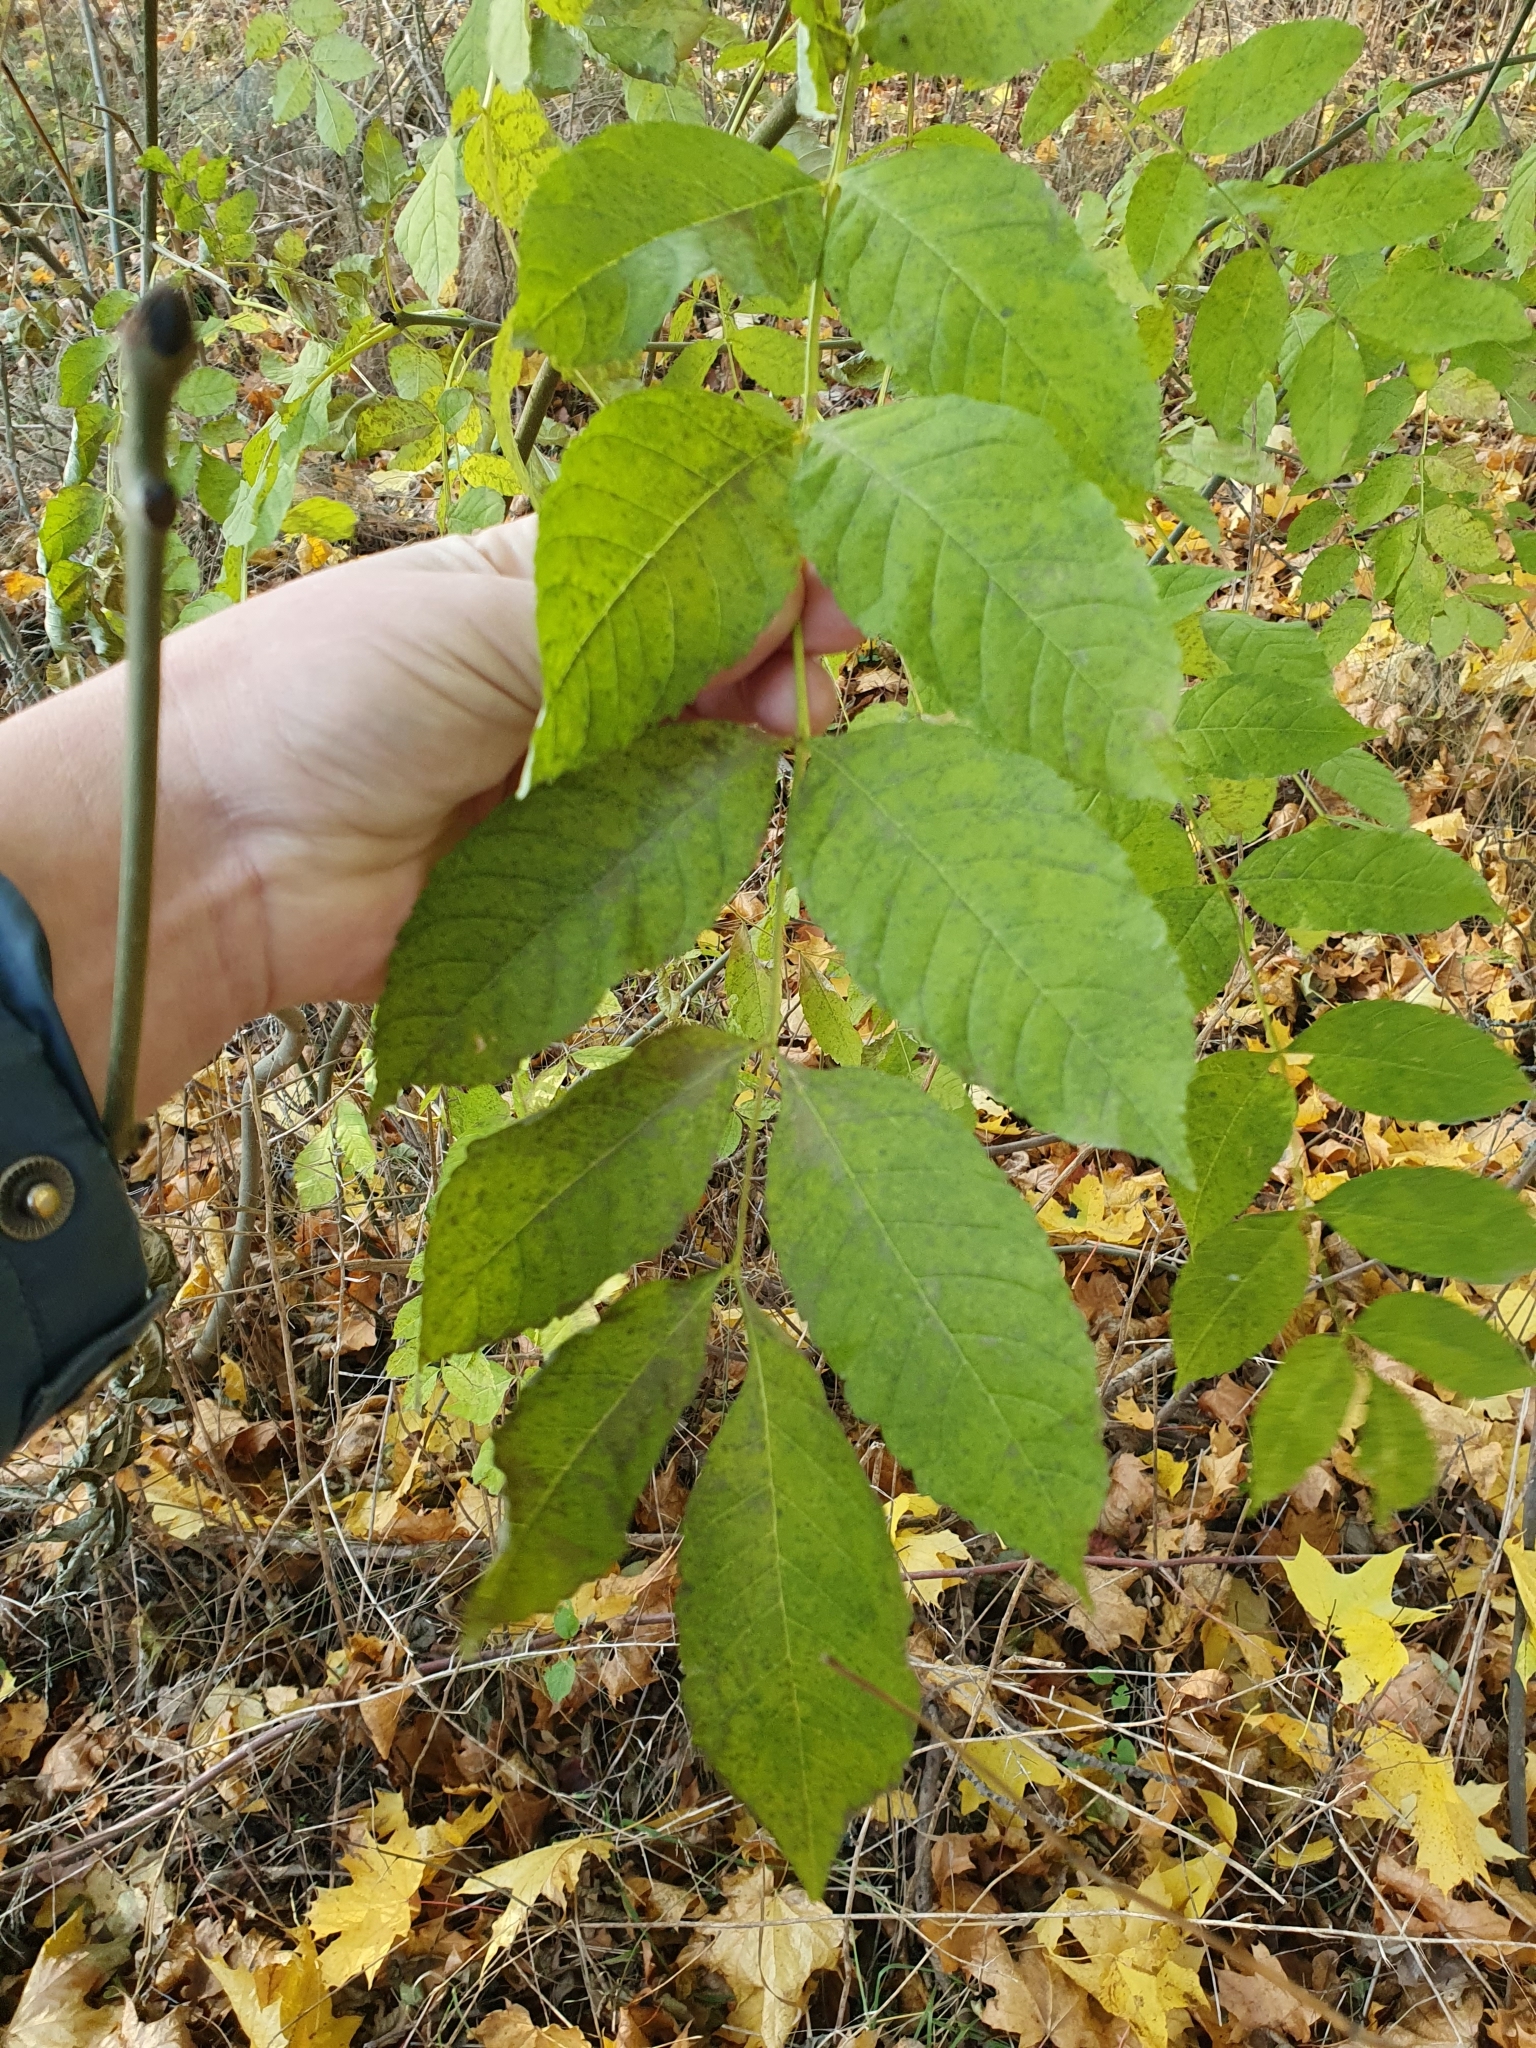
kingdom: Plantae
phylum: Tracheophyta
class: Magnoliopsida
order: Lamiales
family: Oleaceae
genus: Fraxinus
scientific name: Fraxinus excelsior
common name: European ash
